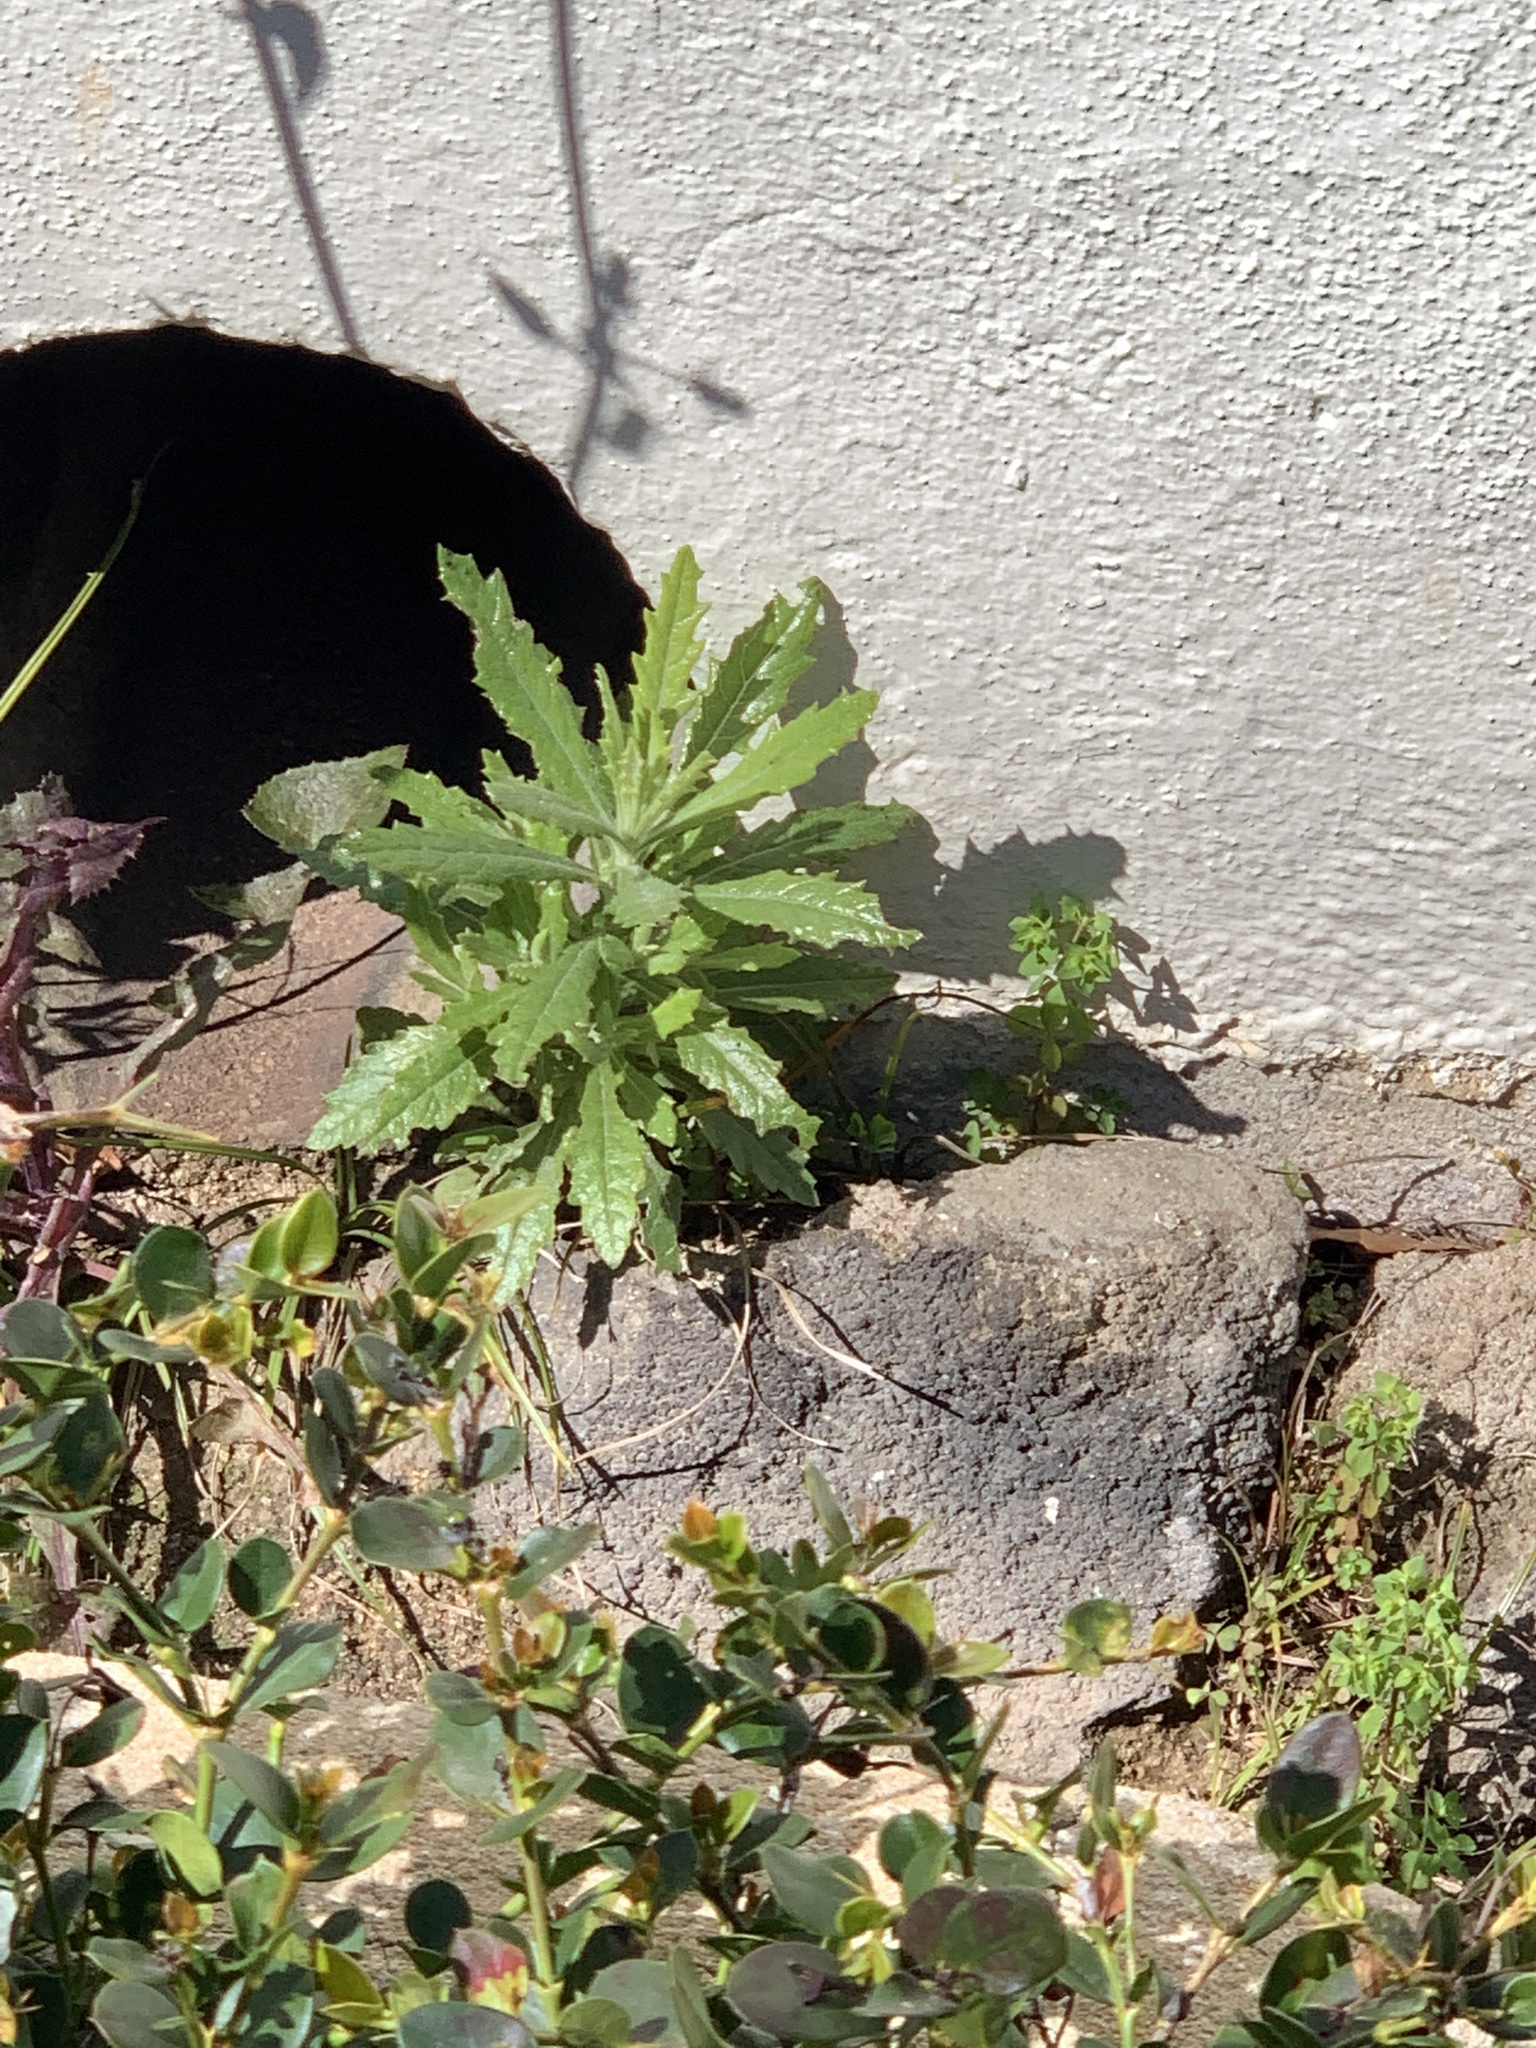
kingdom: Plantae
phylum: Tracheophyta
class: Magnoliopsida
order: Asterales
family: Asteraceae
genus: Senecio
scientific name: Senecio pterophorus
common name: Shoddy ragwort
